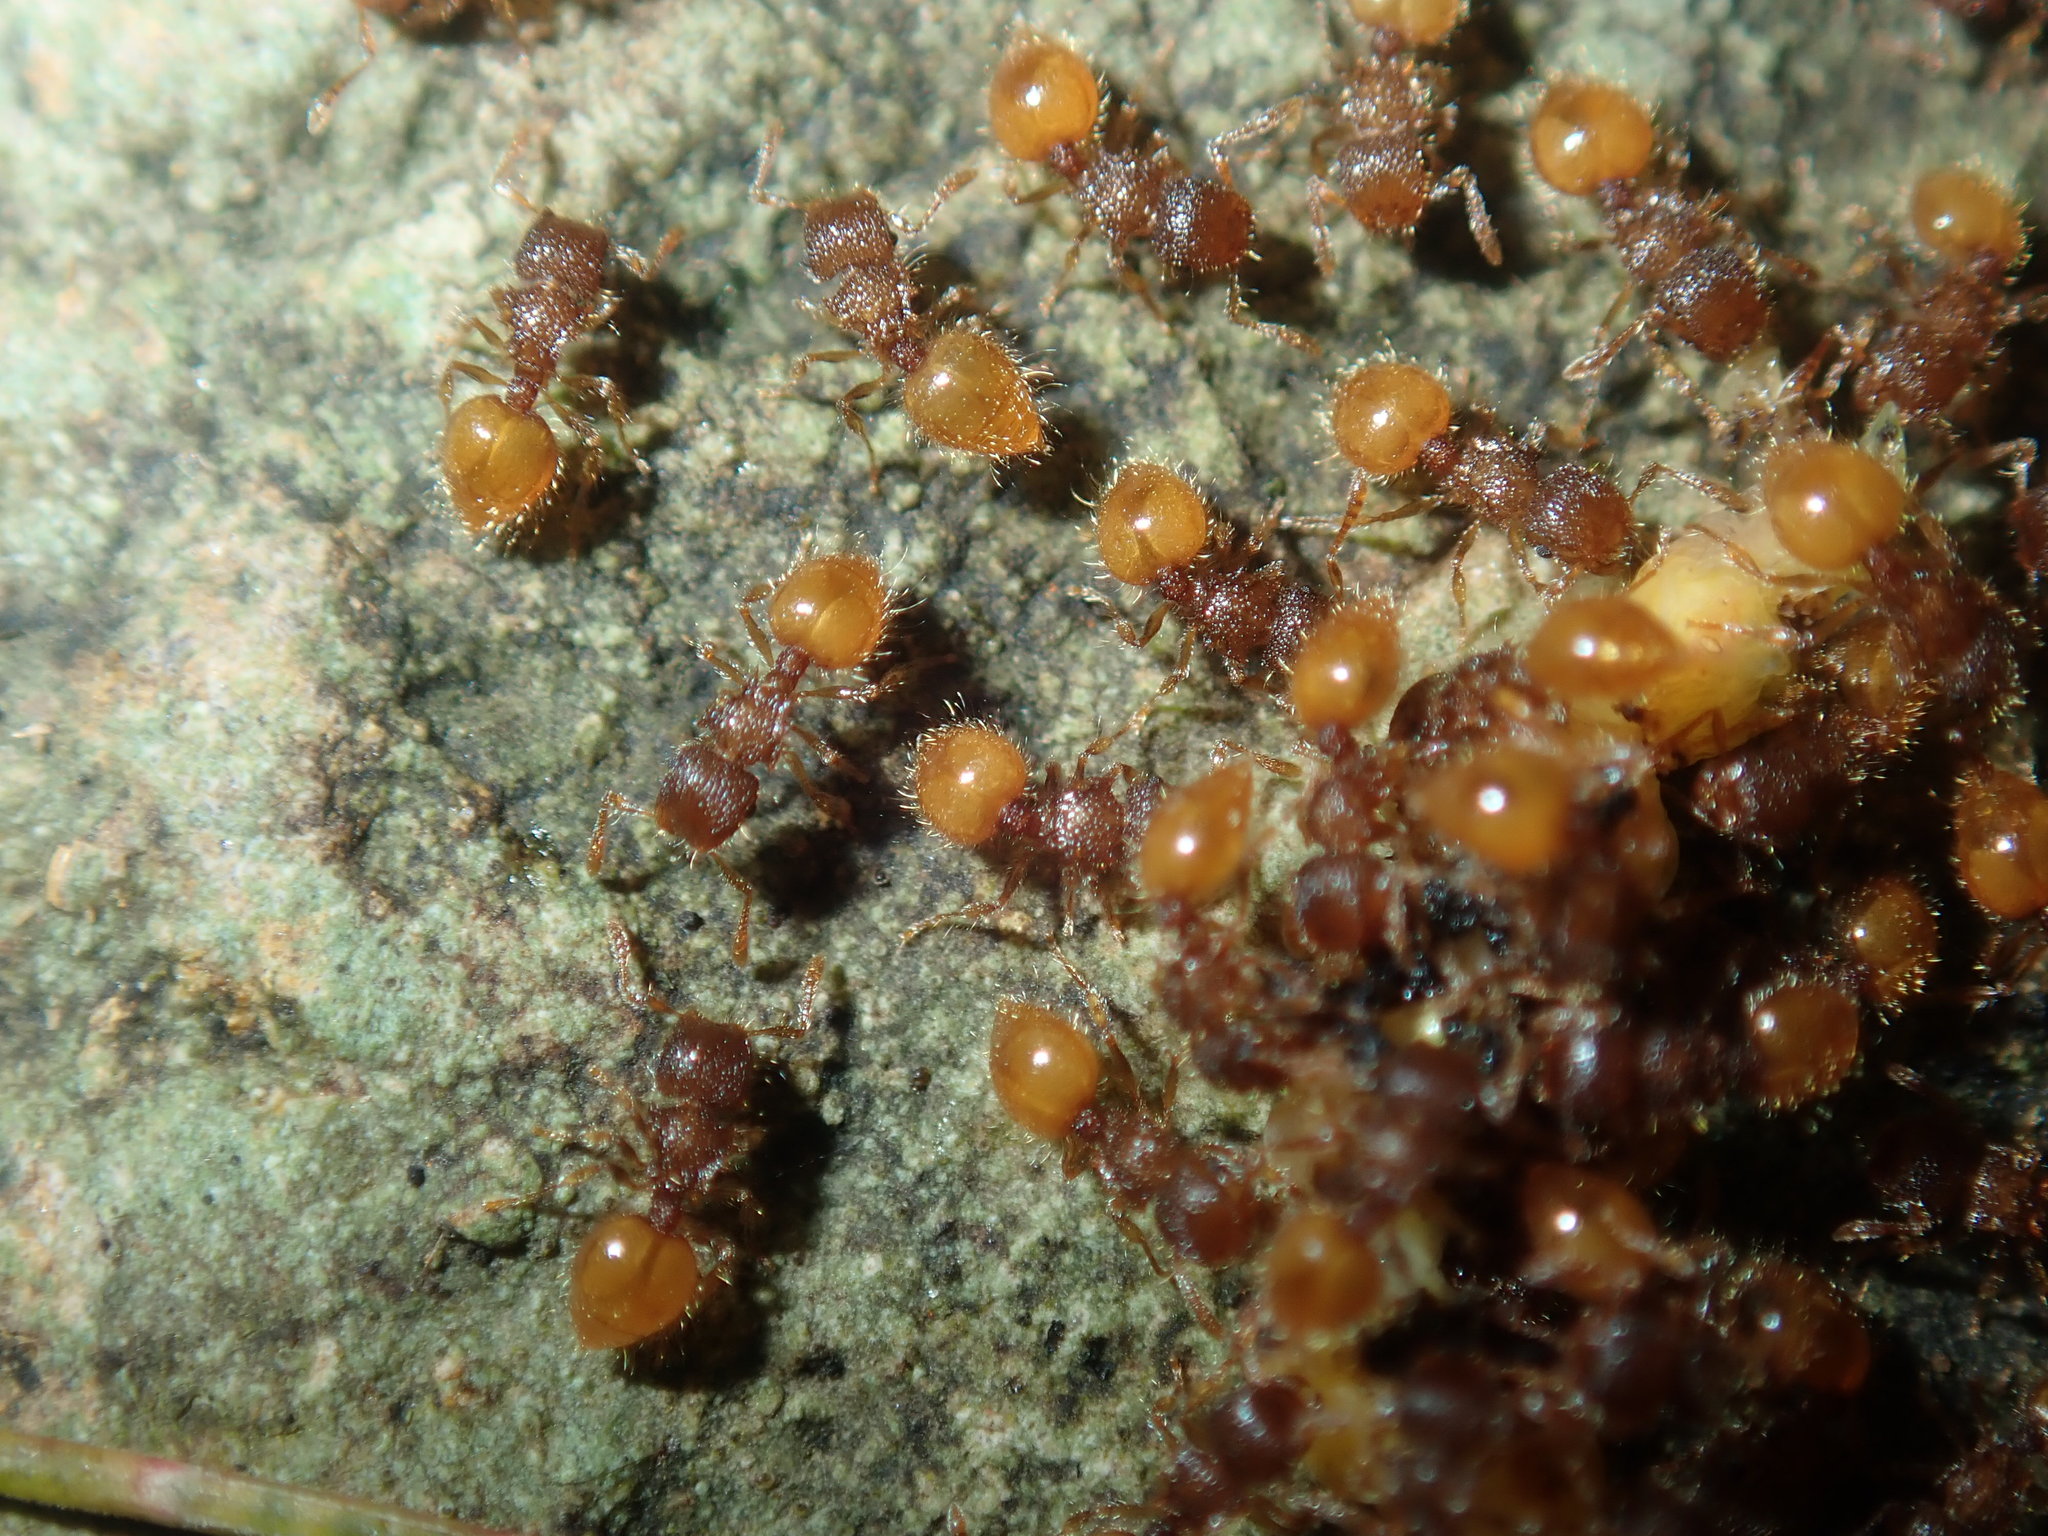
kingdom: Animalia
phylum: Arthropoda
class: Insecta
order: Hymenoptera
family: Formicidae
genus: Meranoplus
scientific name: Meranoplus minor
